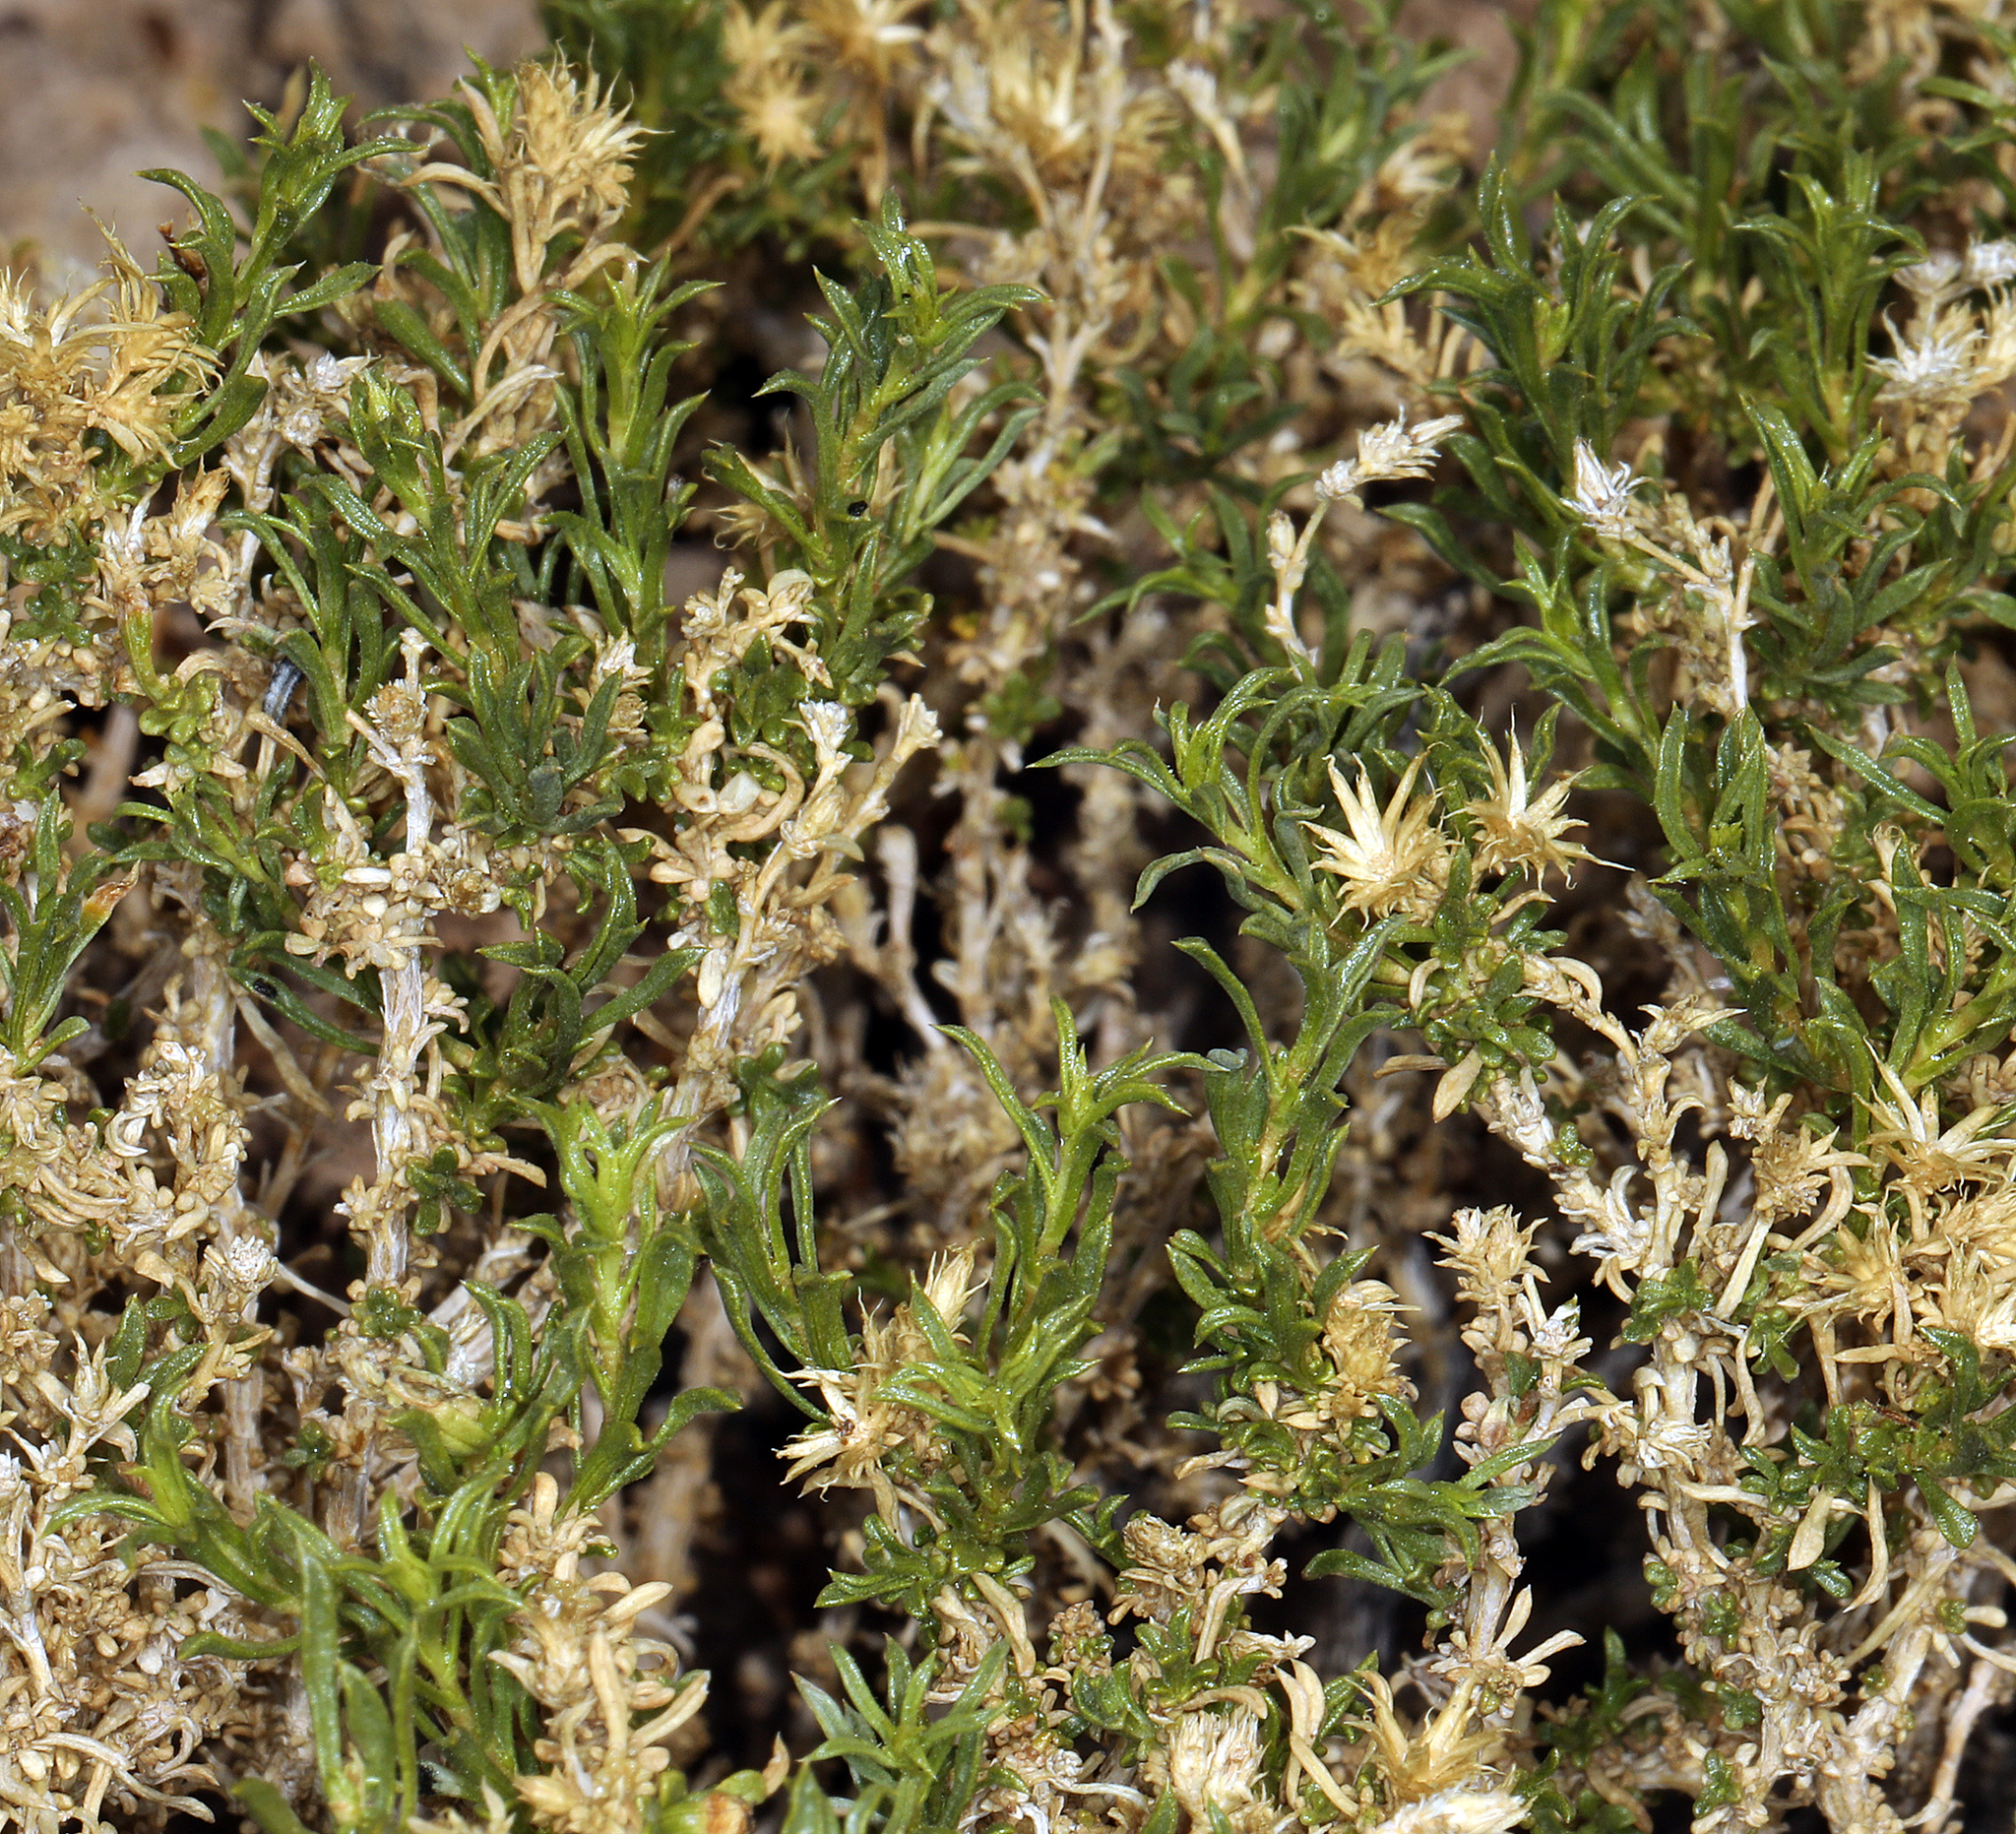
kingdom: Plantae
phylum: Tracheophyta
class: Magnoliopsida
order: Asterales
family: Asteraceae
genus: Ericameria
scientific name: Ericameria nana
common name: Dwarf goldenbush
